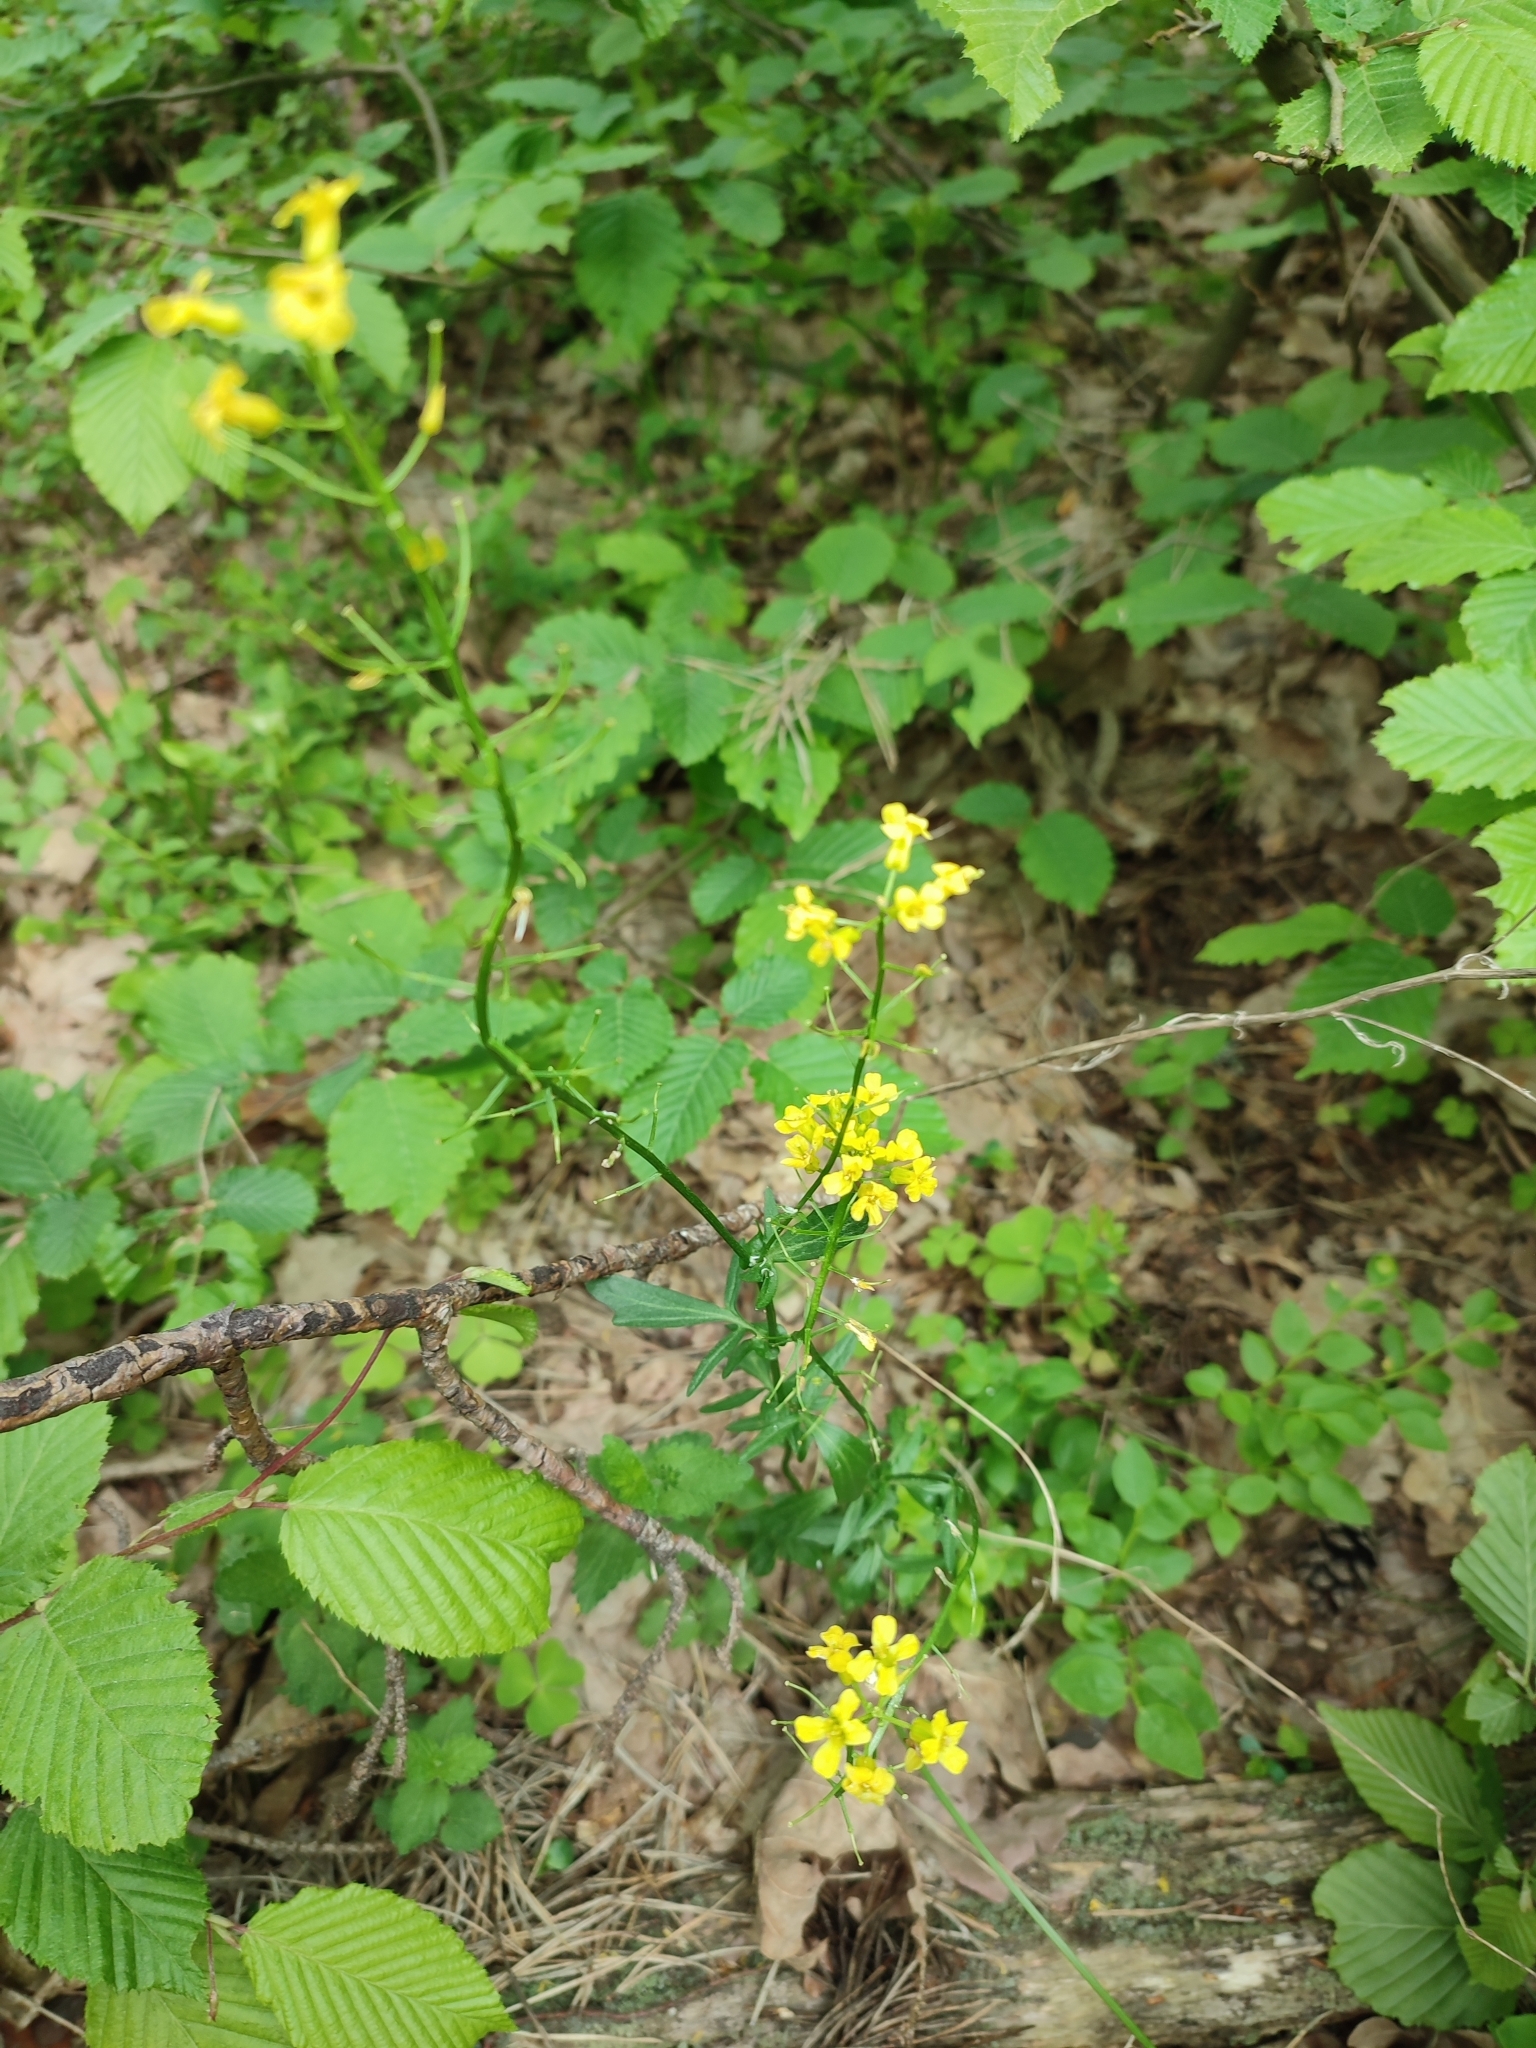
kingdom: Plantae
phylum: Tracheophyta
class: Magnoliopsida
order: Brassicales
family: Brassicaceae
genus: Barbarea
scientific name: Barbarea vulgaris
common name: Cressy-greens
